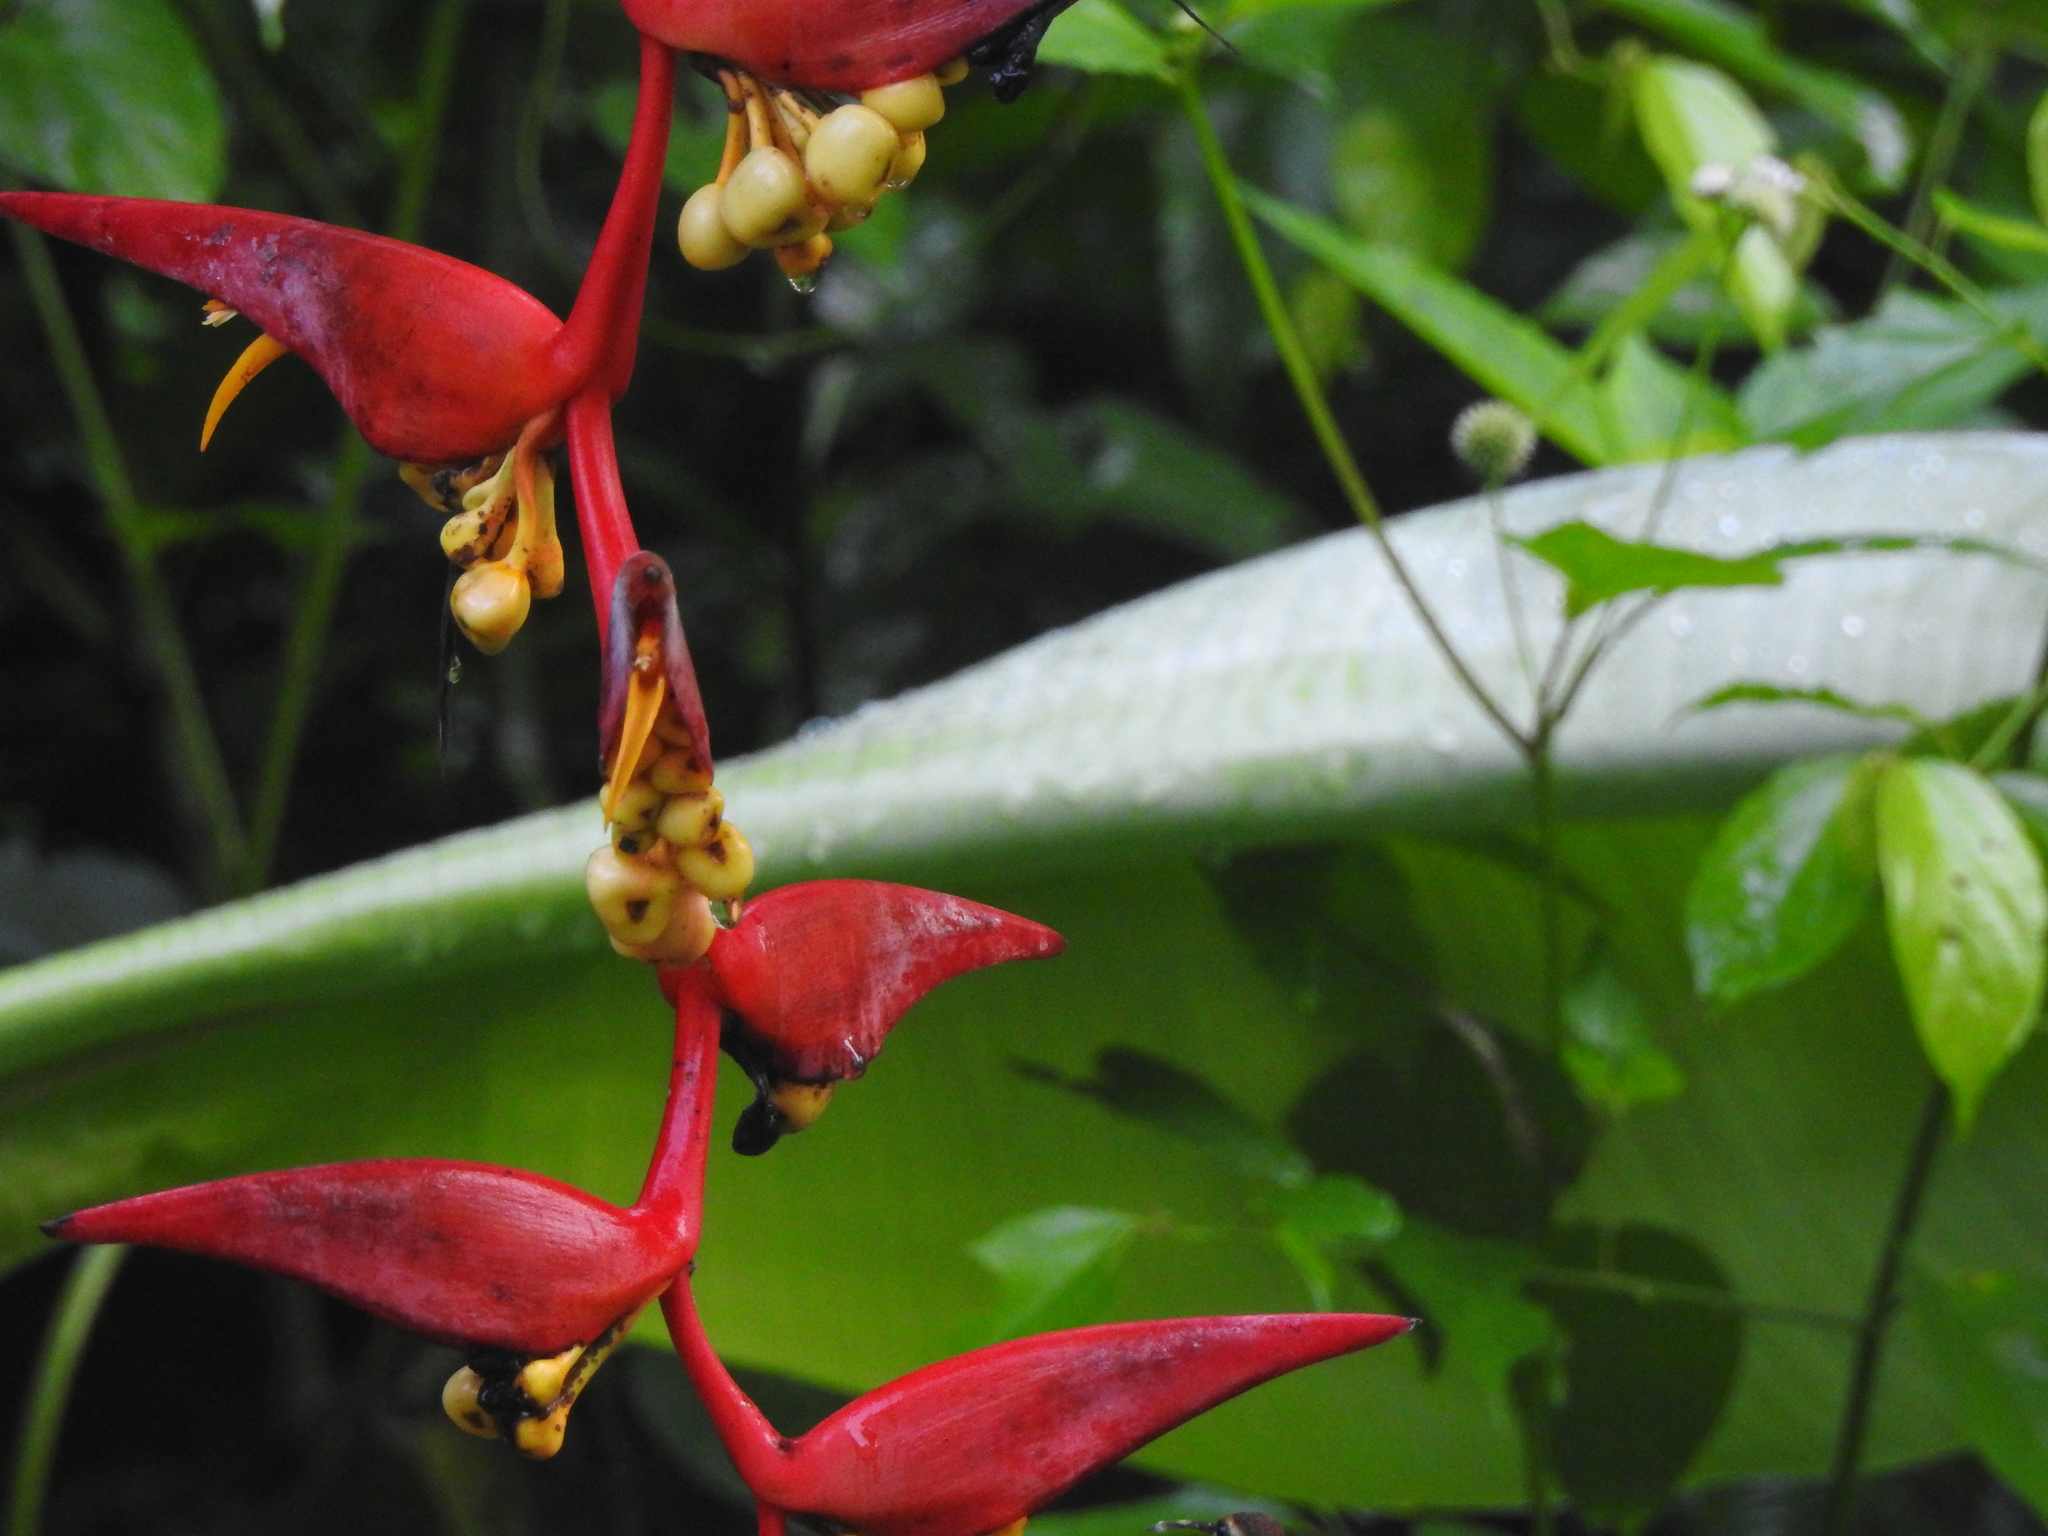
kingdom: Plantae
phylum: Tracheophyta
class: Liliopsida
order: Zingiberales
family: Heliconiaceae
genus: Heliconia
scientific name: Heliconia collinsiana
